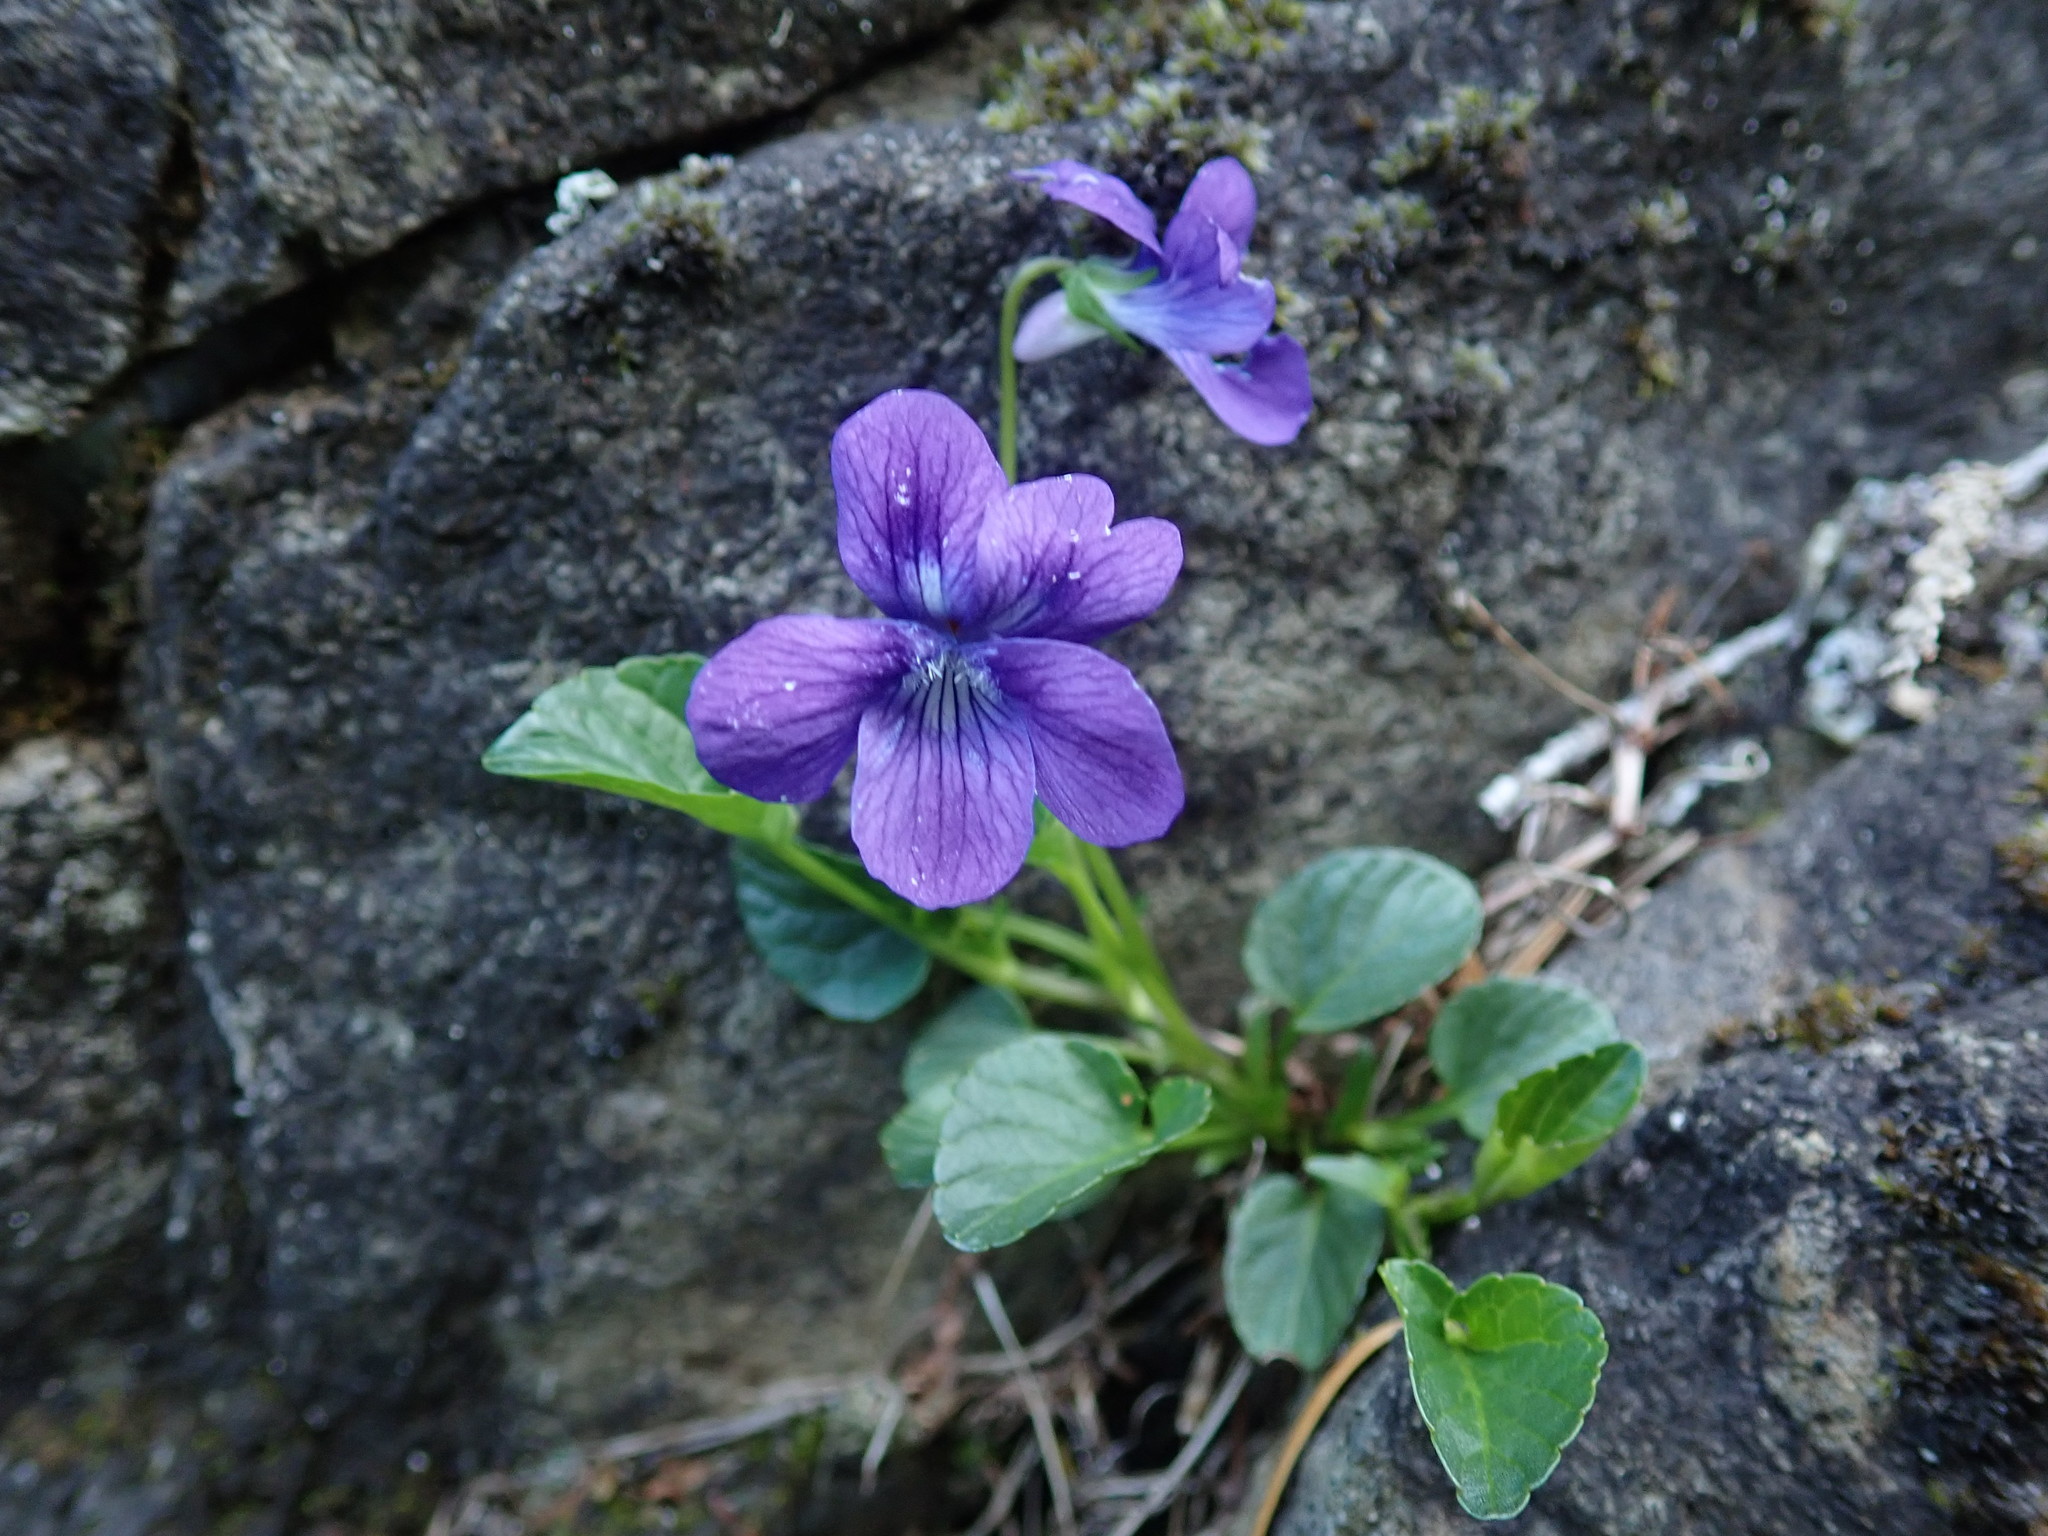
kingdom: Plantae
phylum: Tracheophyta
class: Magnoliopsida
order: Malpighiales
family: Violaceae
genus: Viola
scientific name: Viola adunca
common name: Sand violet
